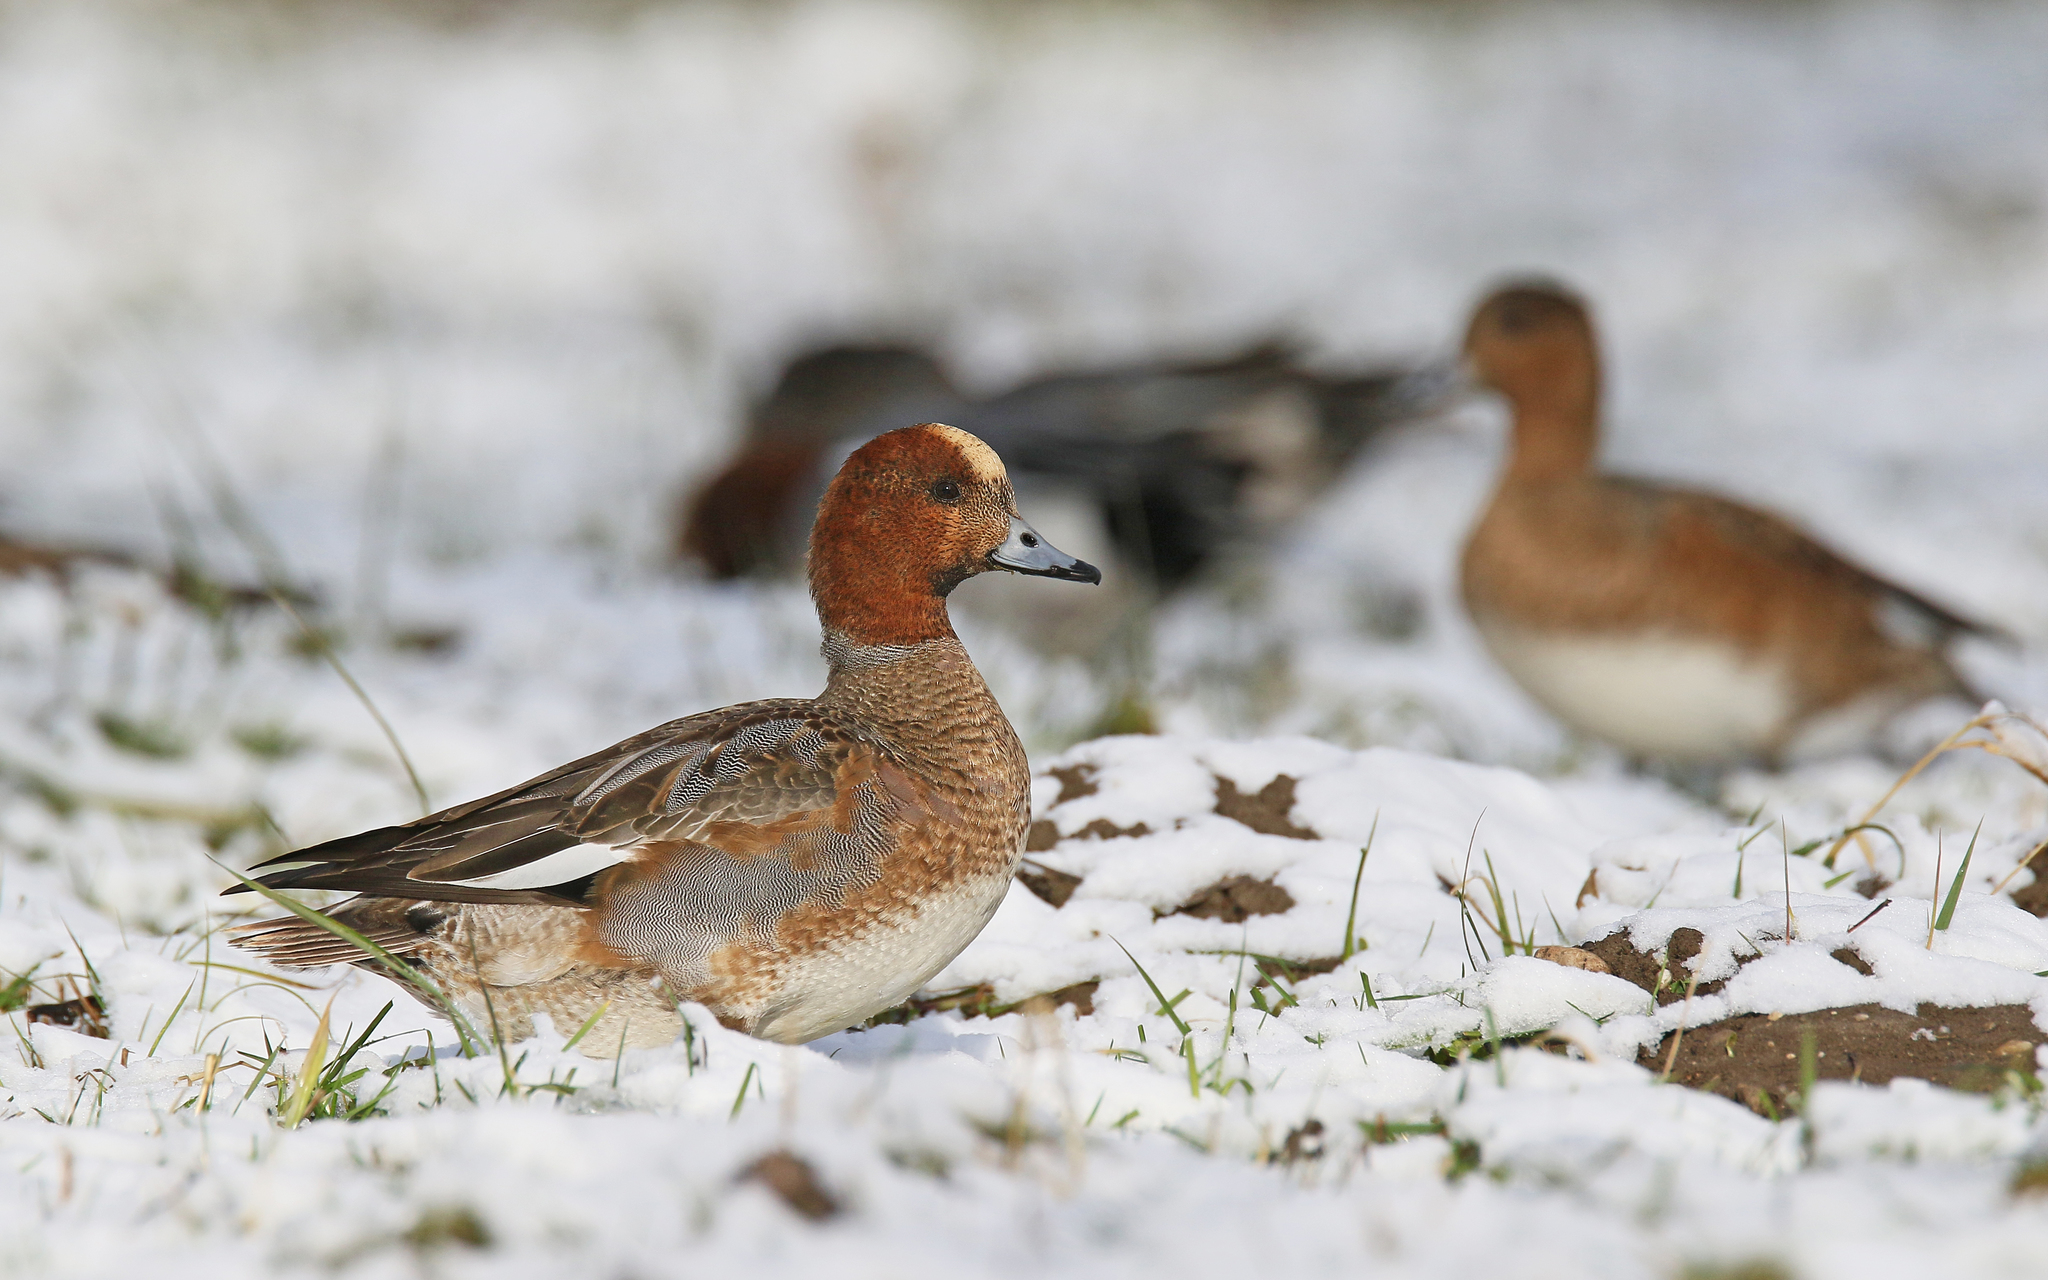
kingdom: Animalia
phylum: Chordata
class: Aves
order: Anseriformes
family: Anatidae
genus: Mareca
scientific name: Mareca penelope
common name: Eurasian wigeon
